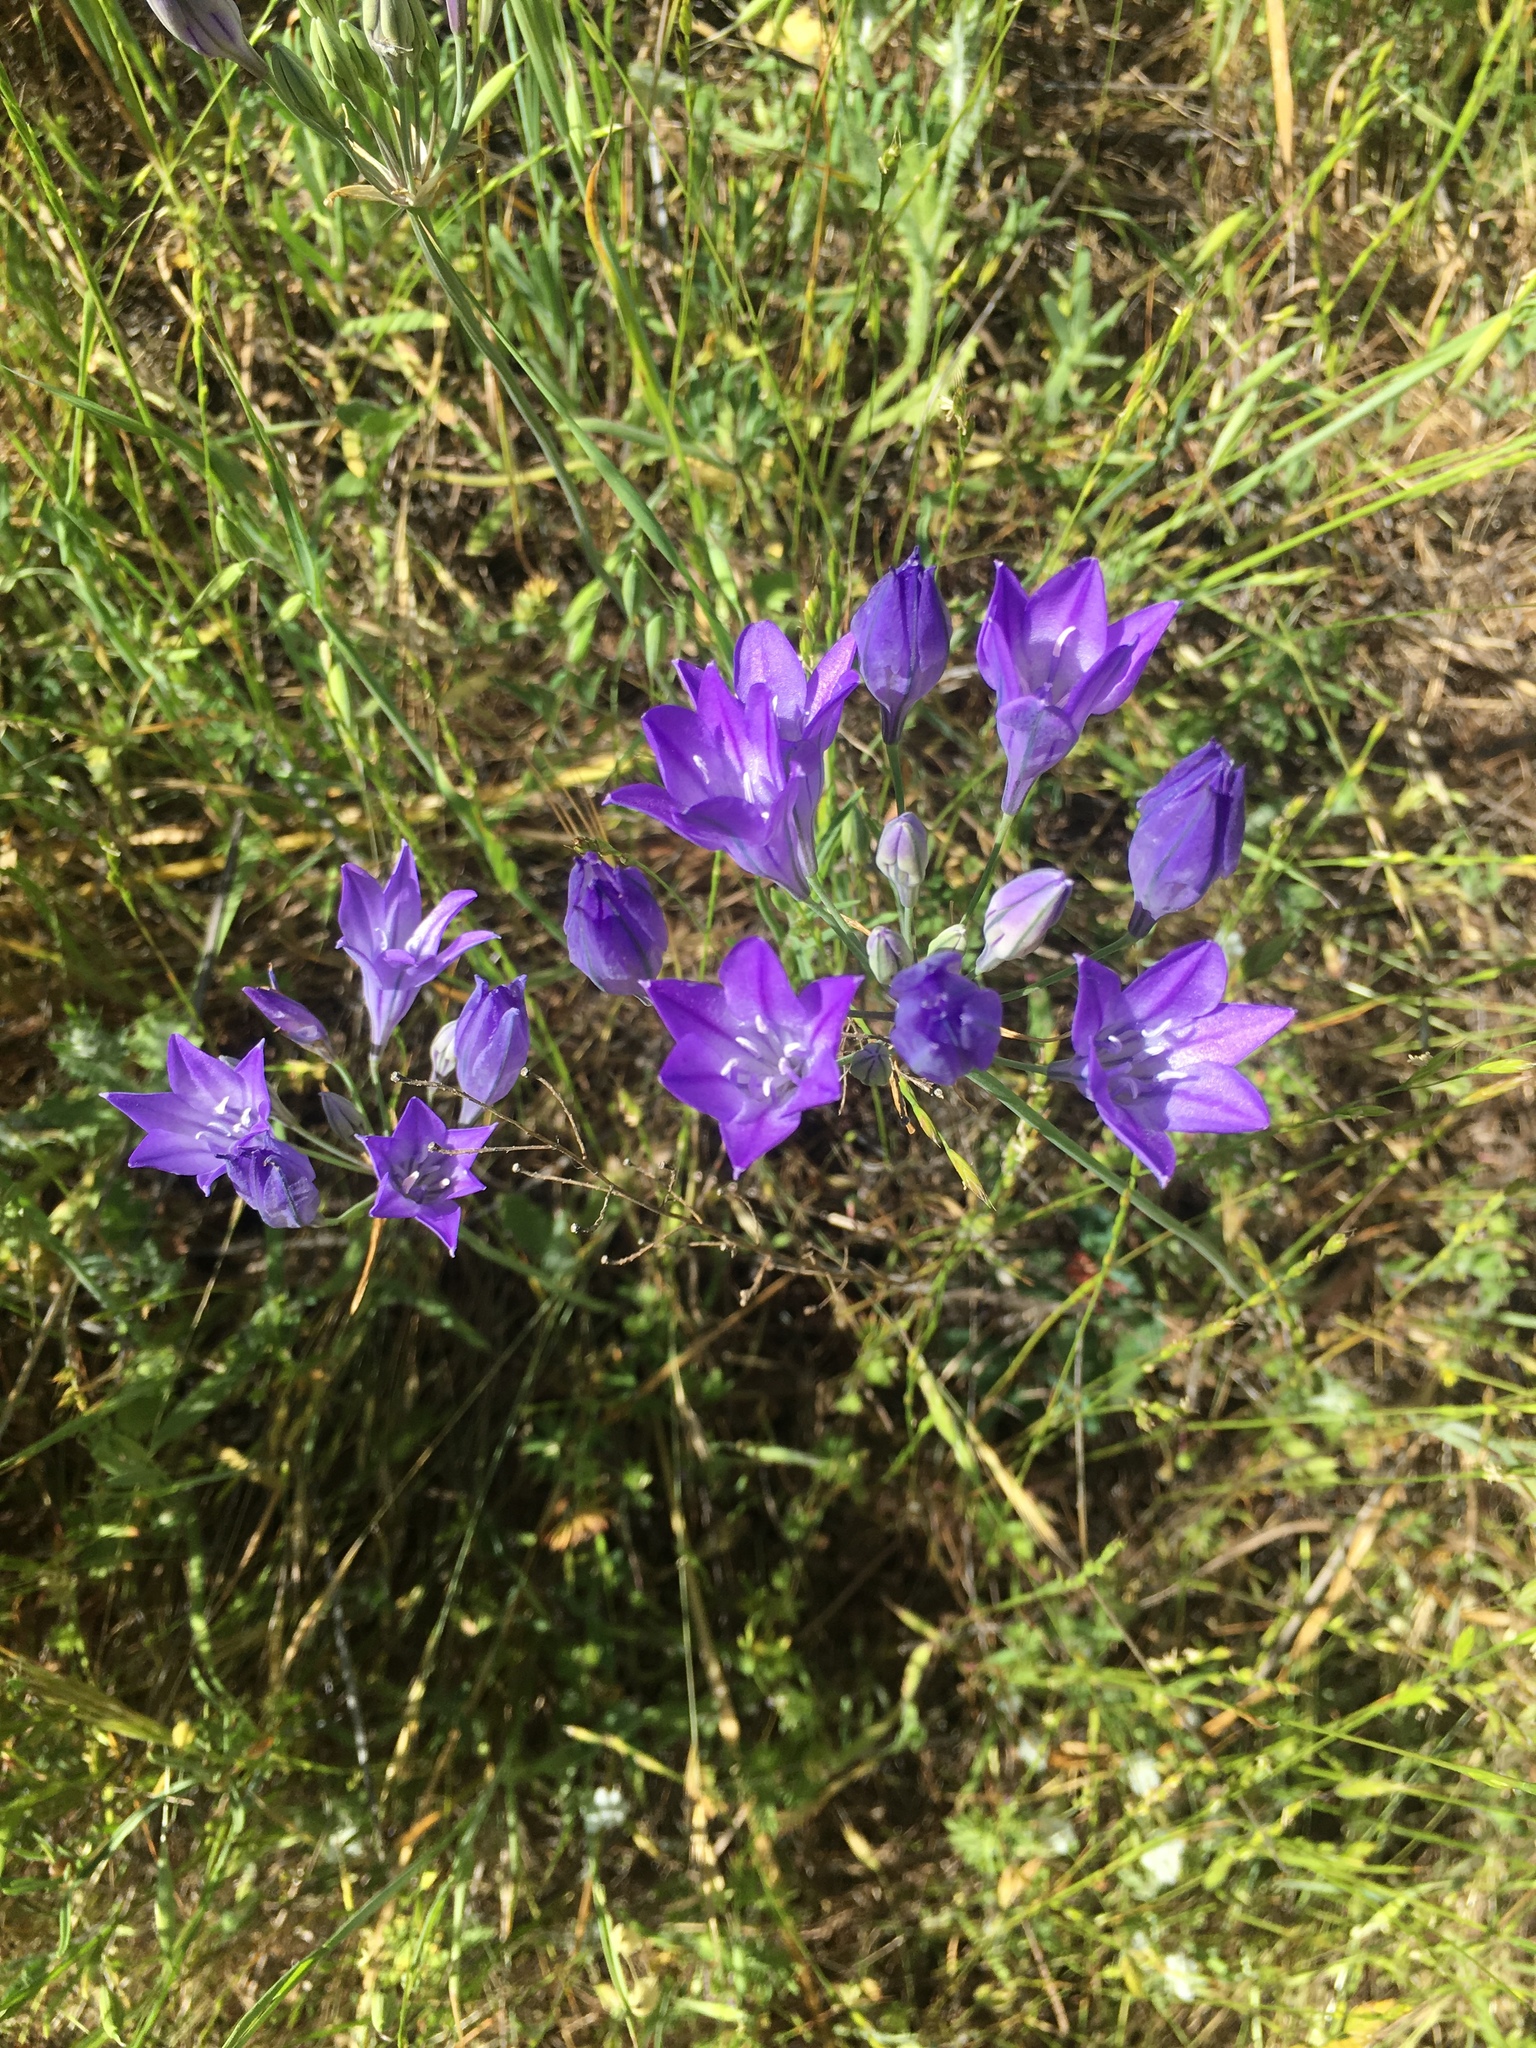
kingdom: Plantae
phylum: Tracheophyta
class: Liliopsida
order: Asparagales
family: Asparagaceae
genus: Triteleia
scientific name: Triteleia laxa
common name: Triplet-lily
